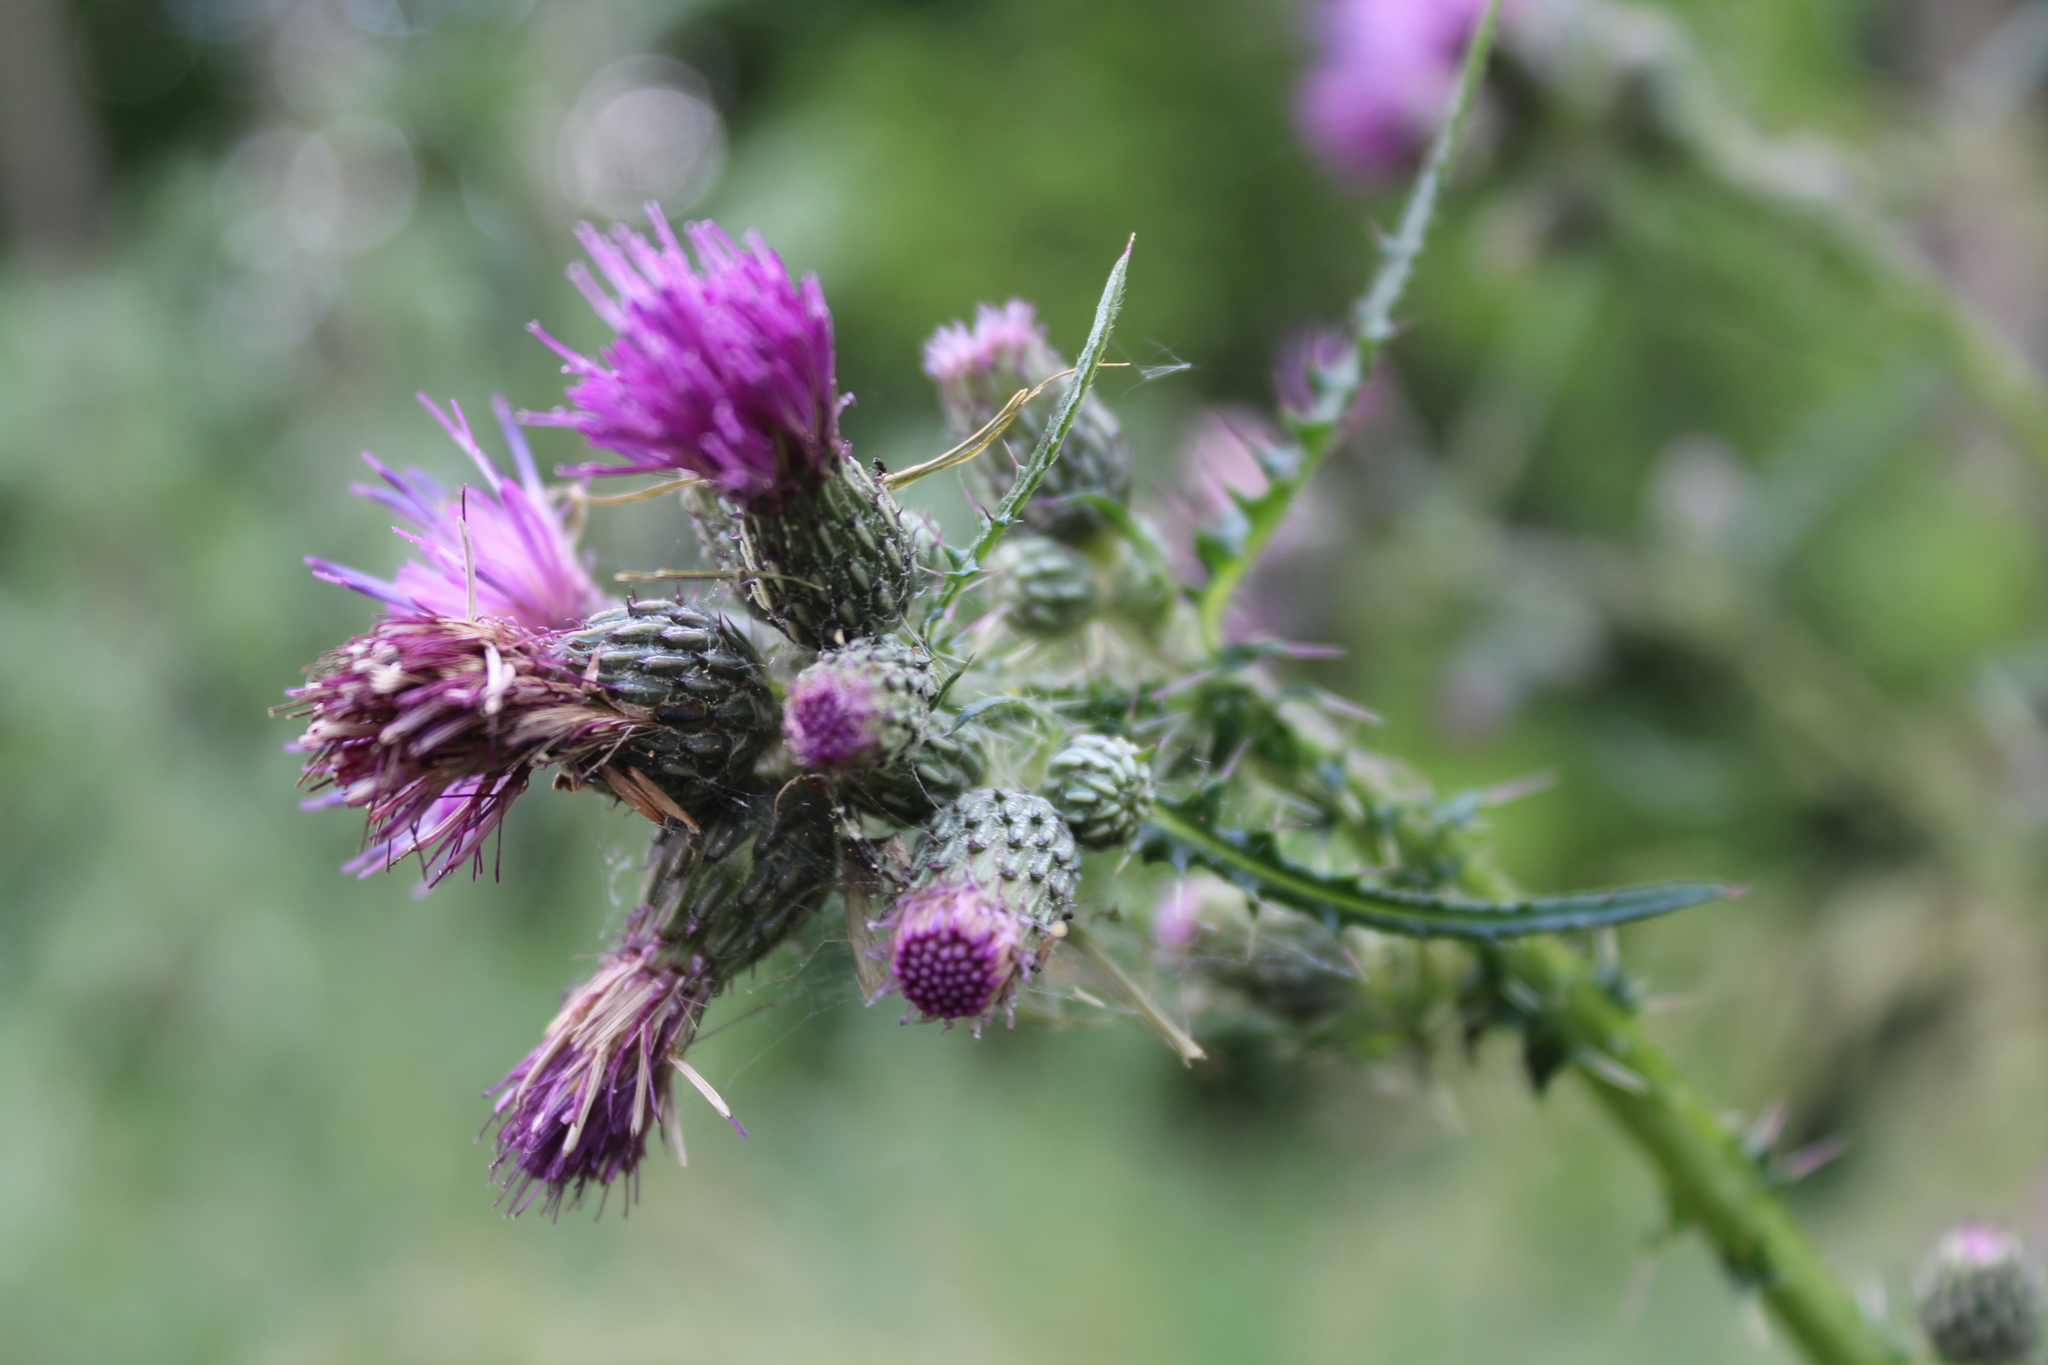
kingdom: Plantae
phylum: Tracheophyta
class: Magnoliopsida
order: Asterales
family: Asteraceae
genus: Cirsium
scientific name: Cirsium palustre
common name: Marsh thistle
